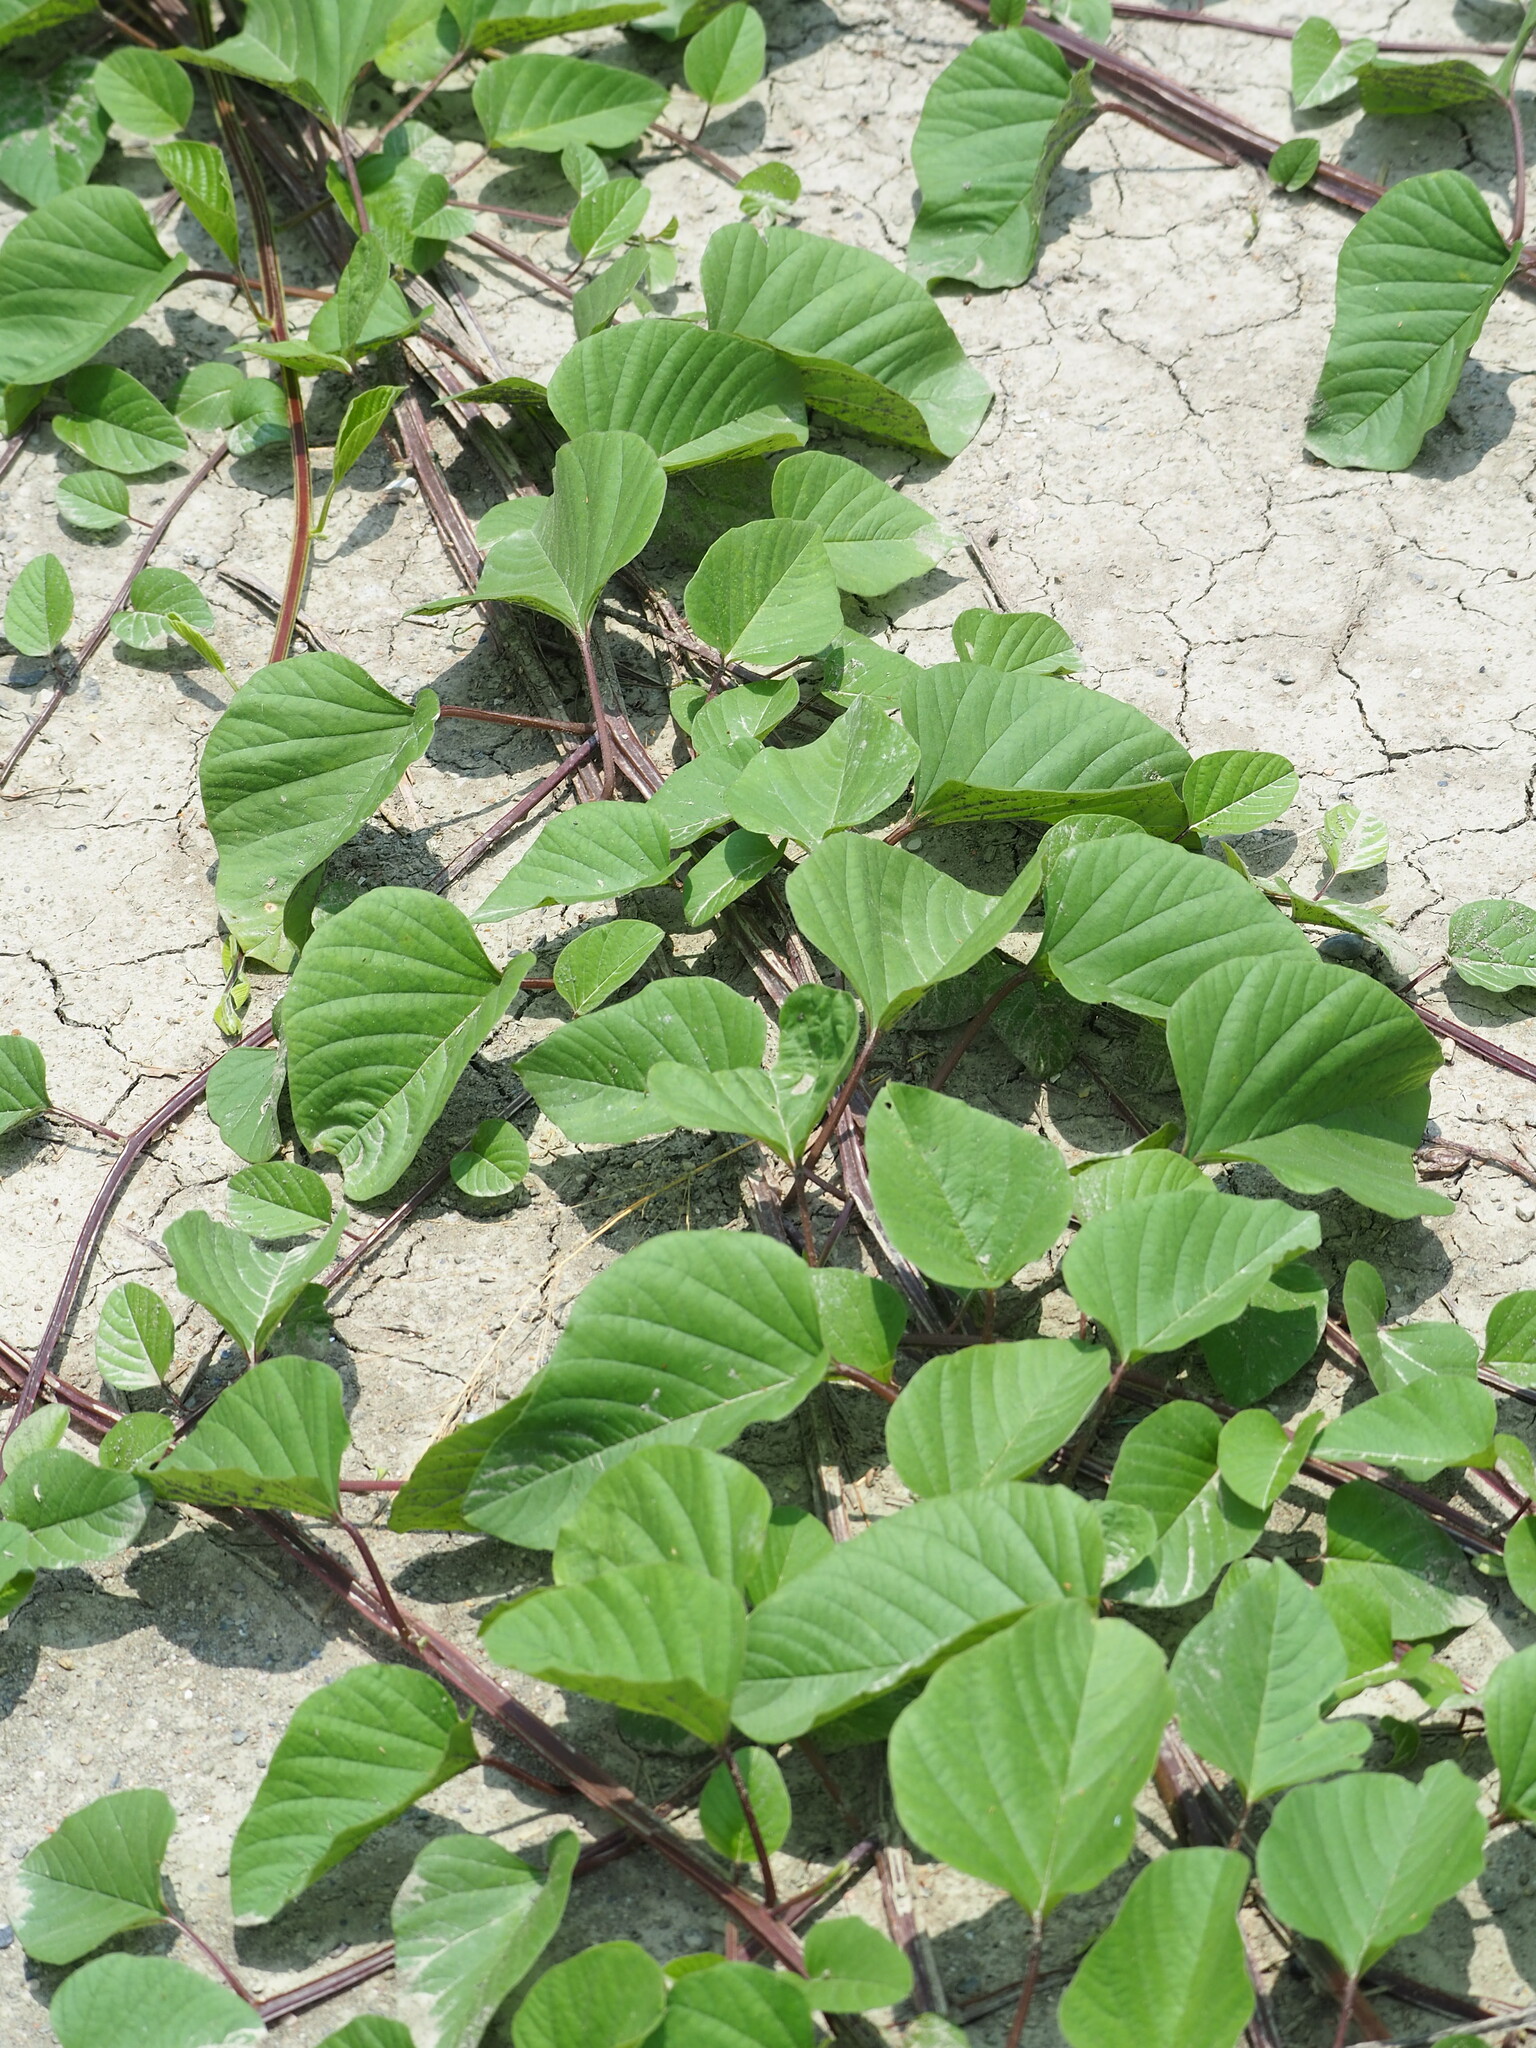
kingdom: Plantae
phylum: Tracheophyta
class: Magnoliopsida
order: Solanales
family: Convolvulaceae
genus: Operculina
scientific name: Operculina turpethum
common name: Transparent wood-rose
